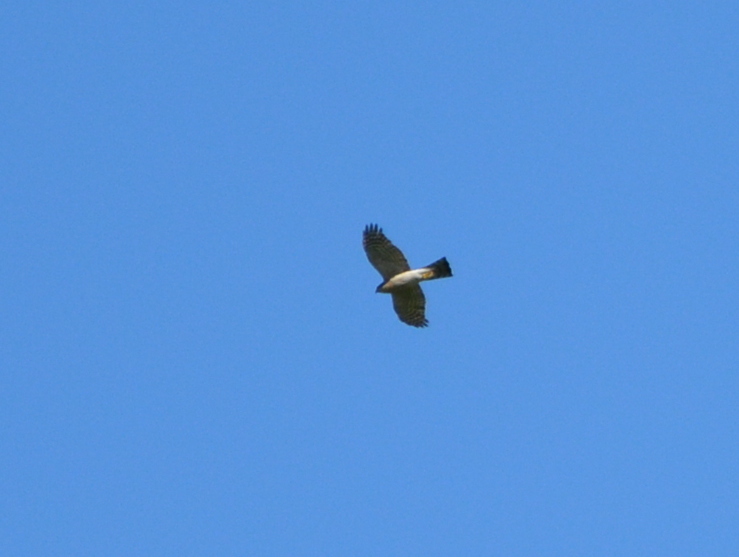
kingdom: Animalia
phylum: Chordata
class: Aves
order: Accipitriformes
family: Accipitridae
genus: Accipiter
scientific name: Accipiter nisus
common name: Eurasian sparrowhawk
